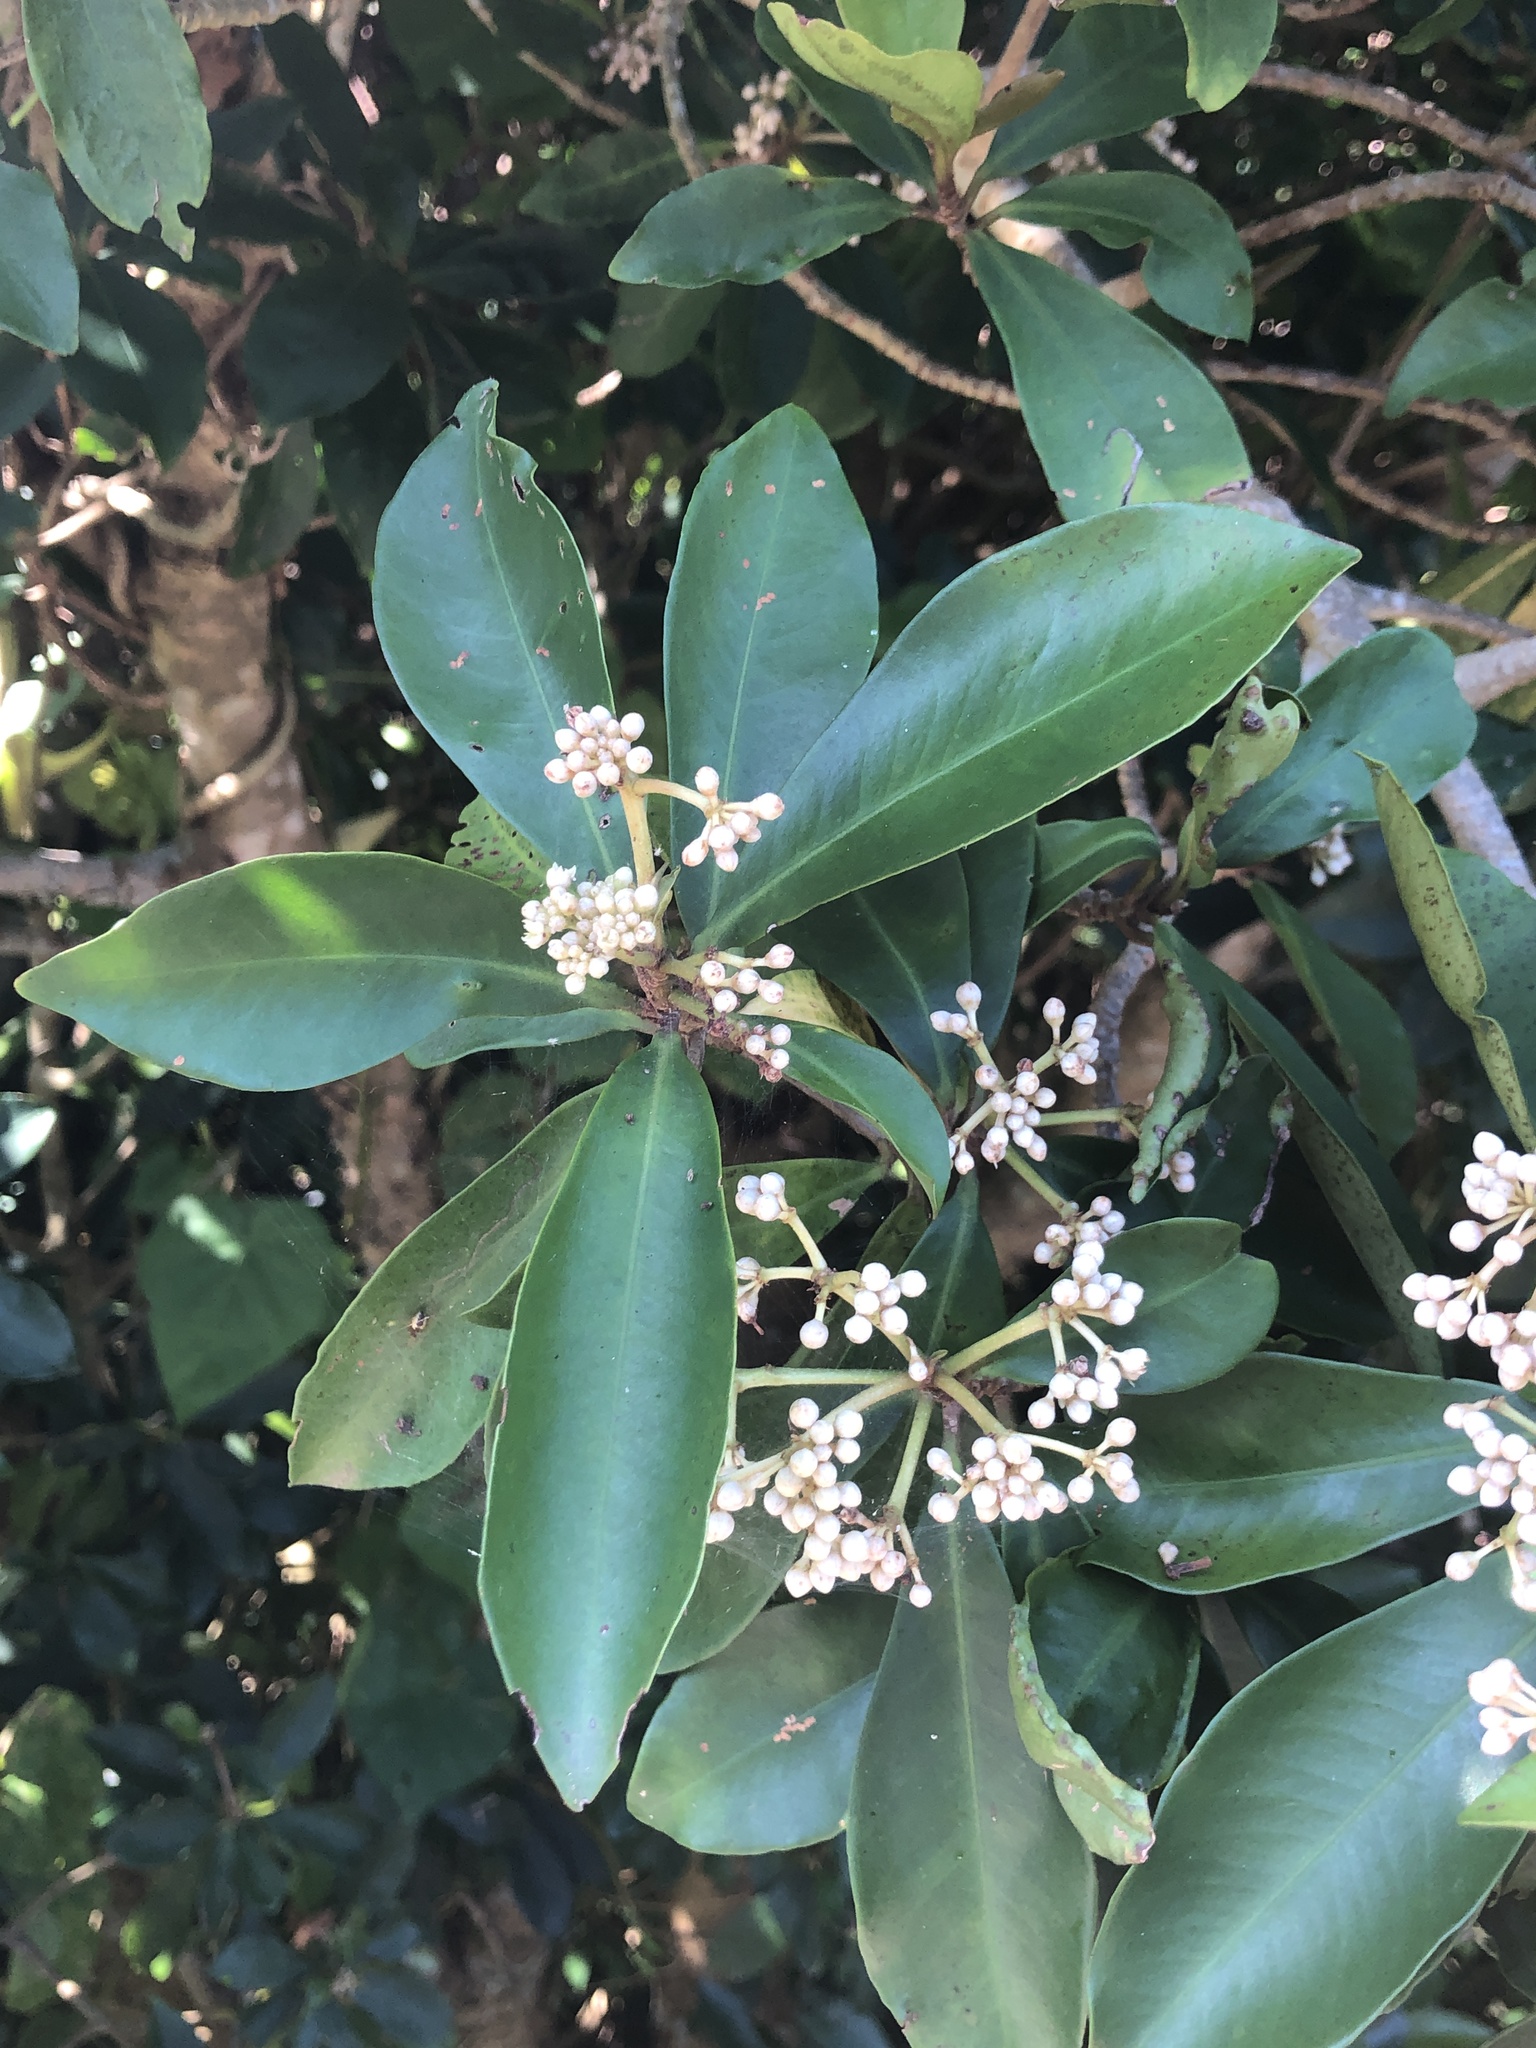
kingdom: Plantae
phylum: Tracheophyta
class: Magnoliopsida
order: Ericales
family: Primulaceae
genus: Ardisia
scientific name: Ardisia sieboldii
